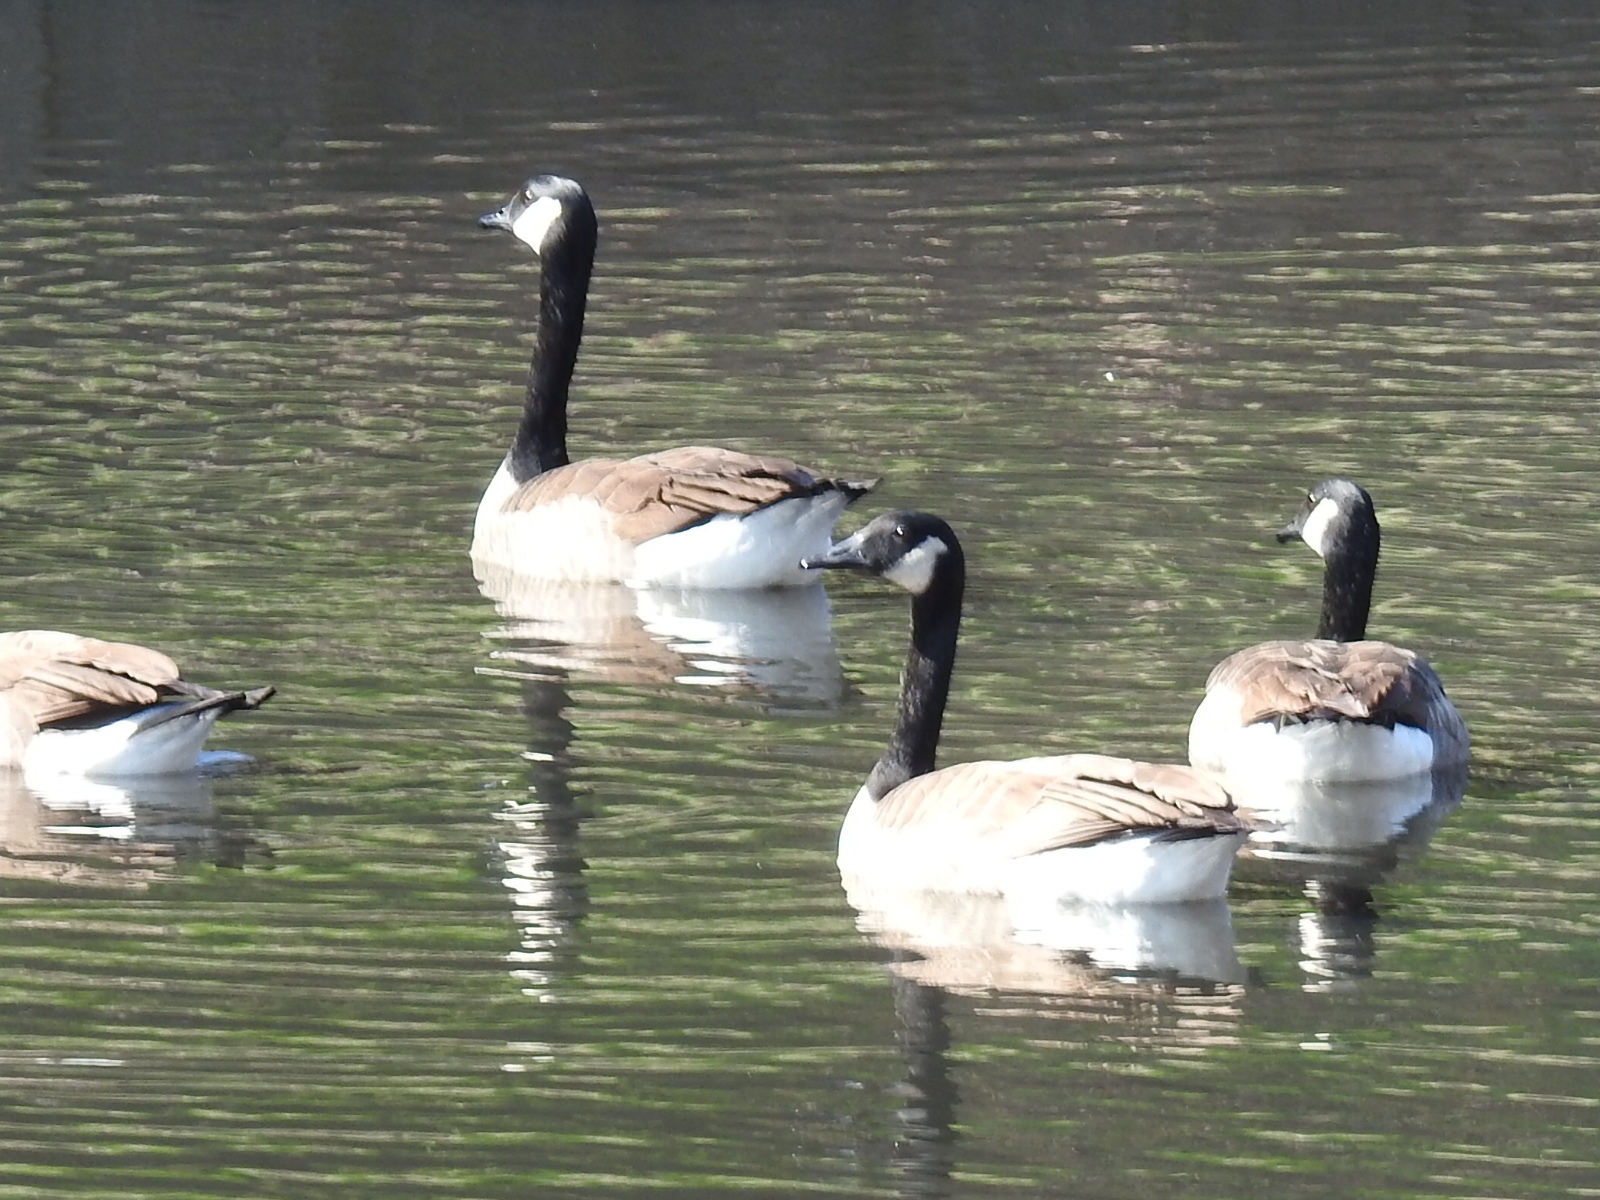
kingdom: Animalia
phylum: Chordata
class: Aves
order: Anseriformes
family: Anatidae
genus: Branta
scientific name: Branta canadensis
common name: Canada goose
